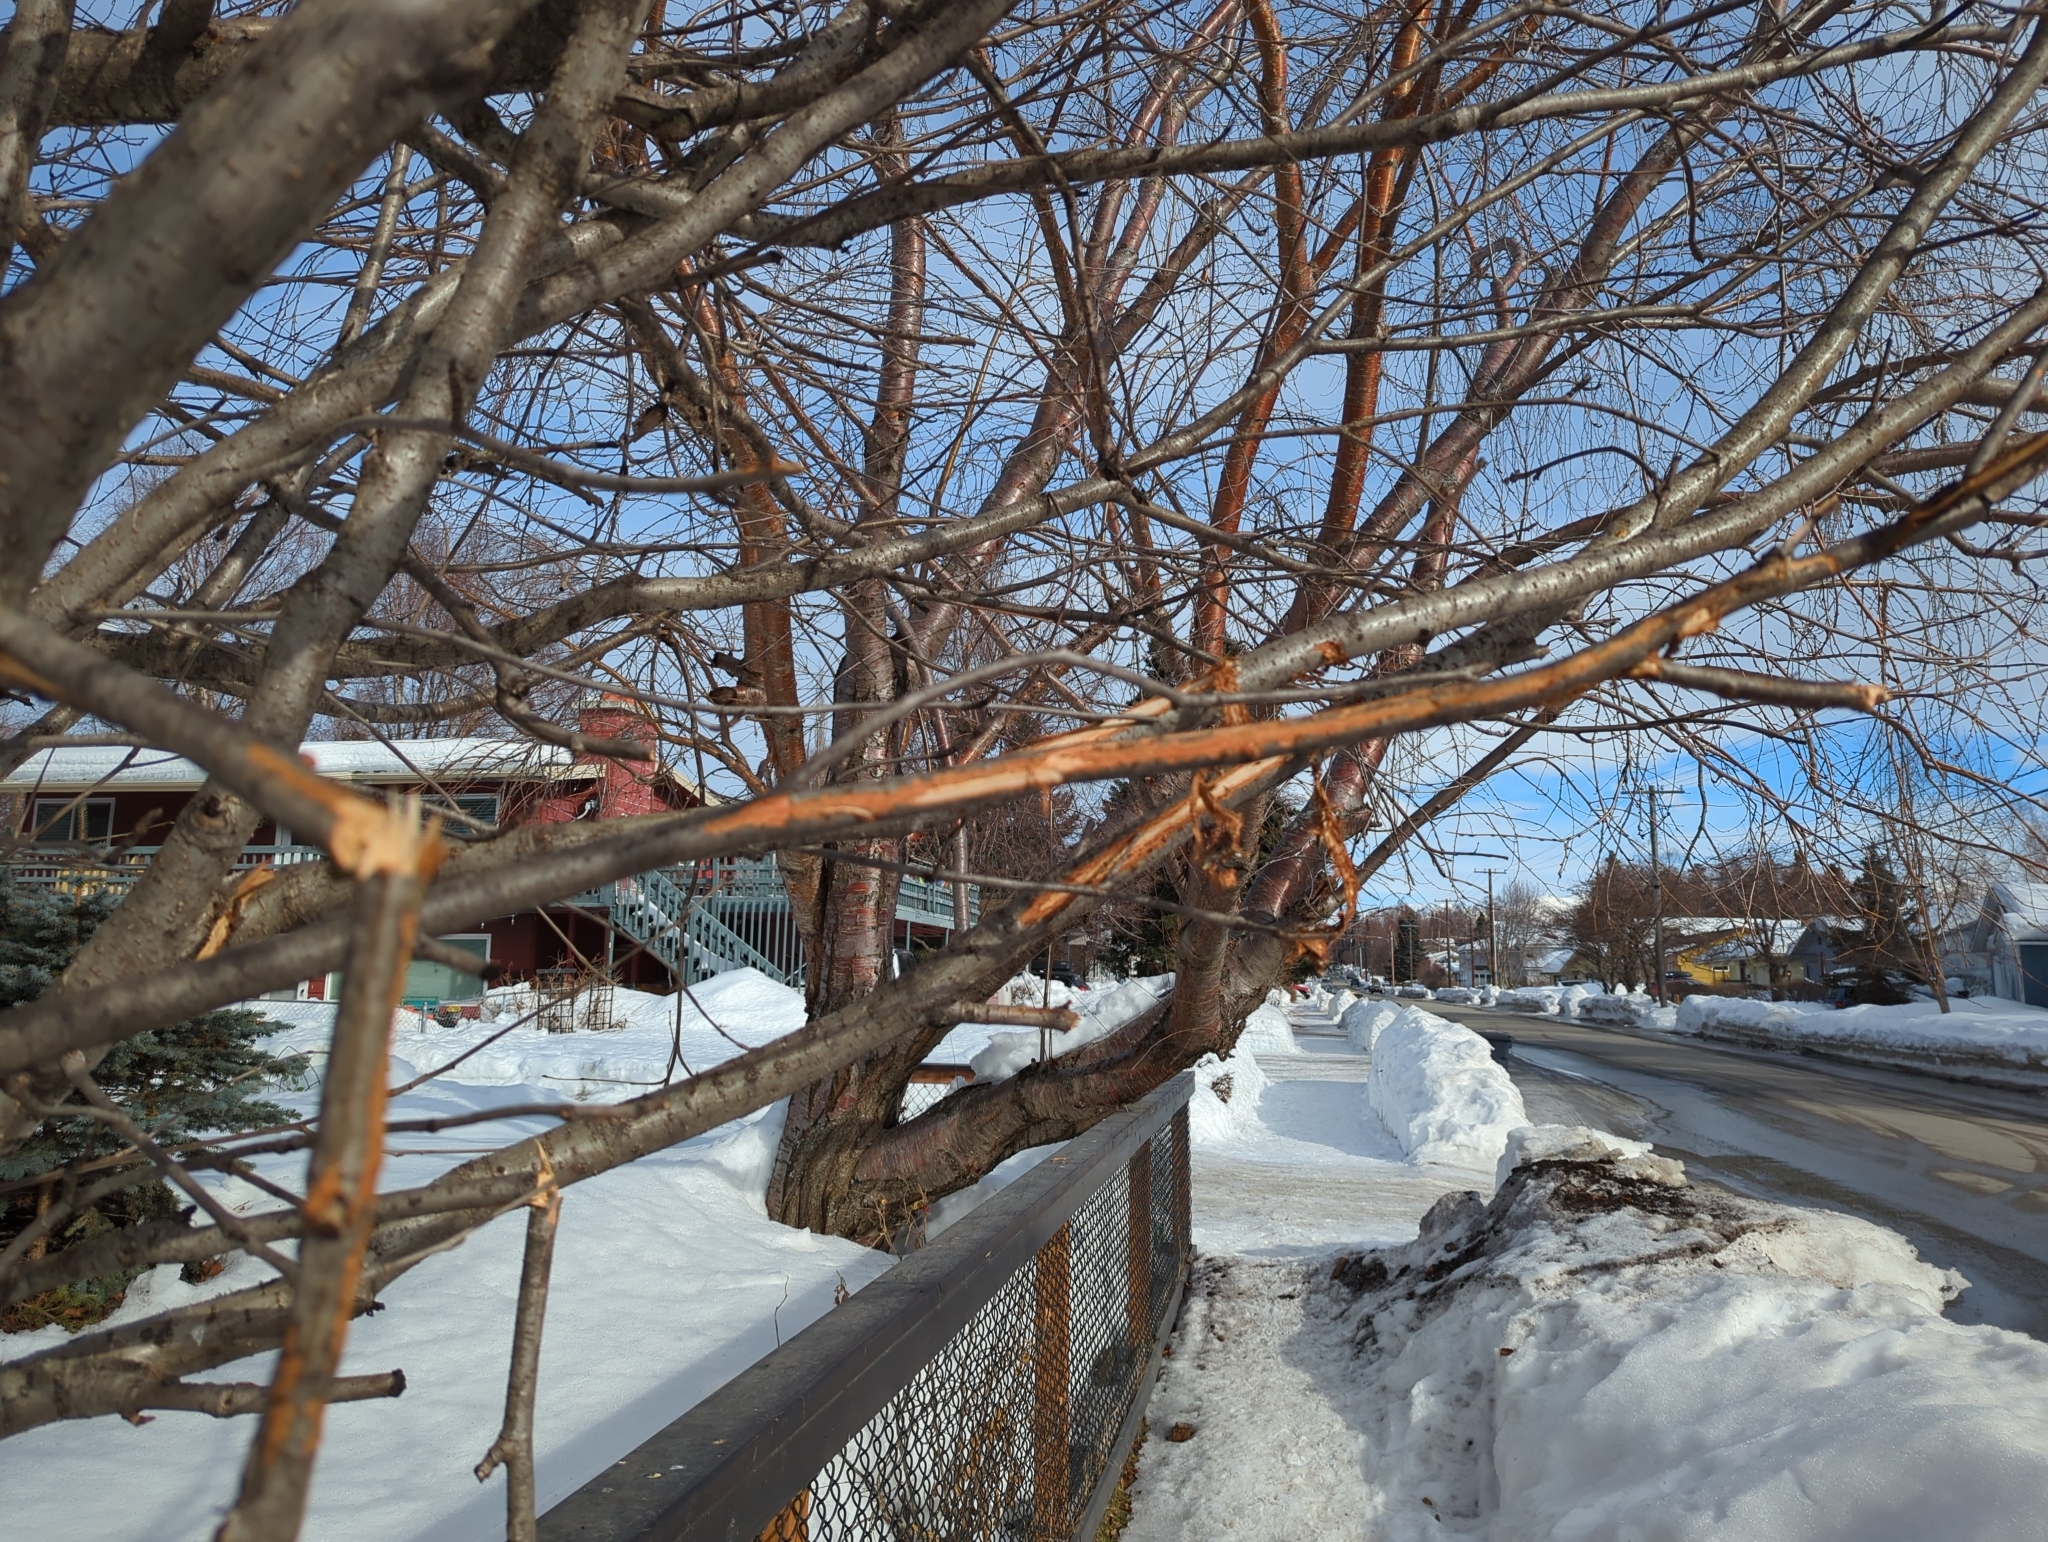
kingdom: Animalia
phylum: Chordata
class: Mammalia
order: Artiodactyla
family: Cervidae
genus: Alces
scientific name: Alces alces
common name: Moose
